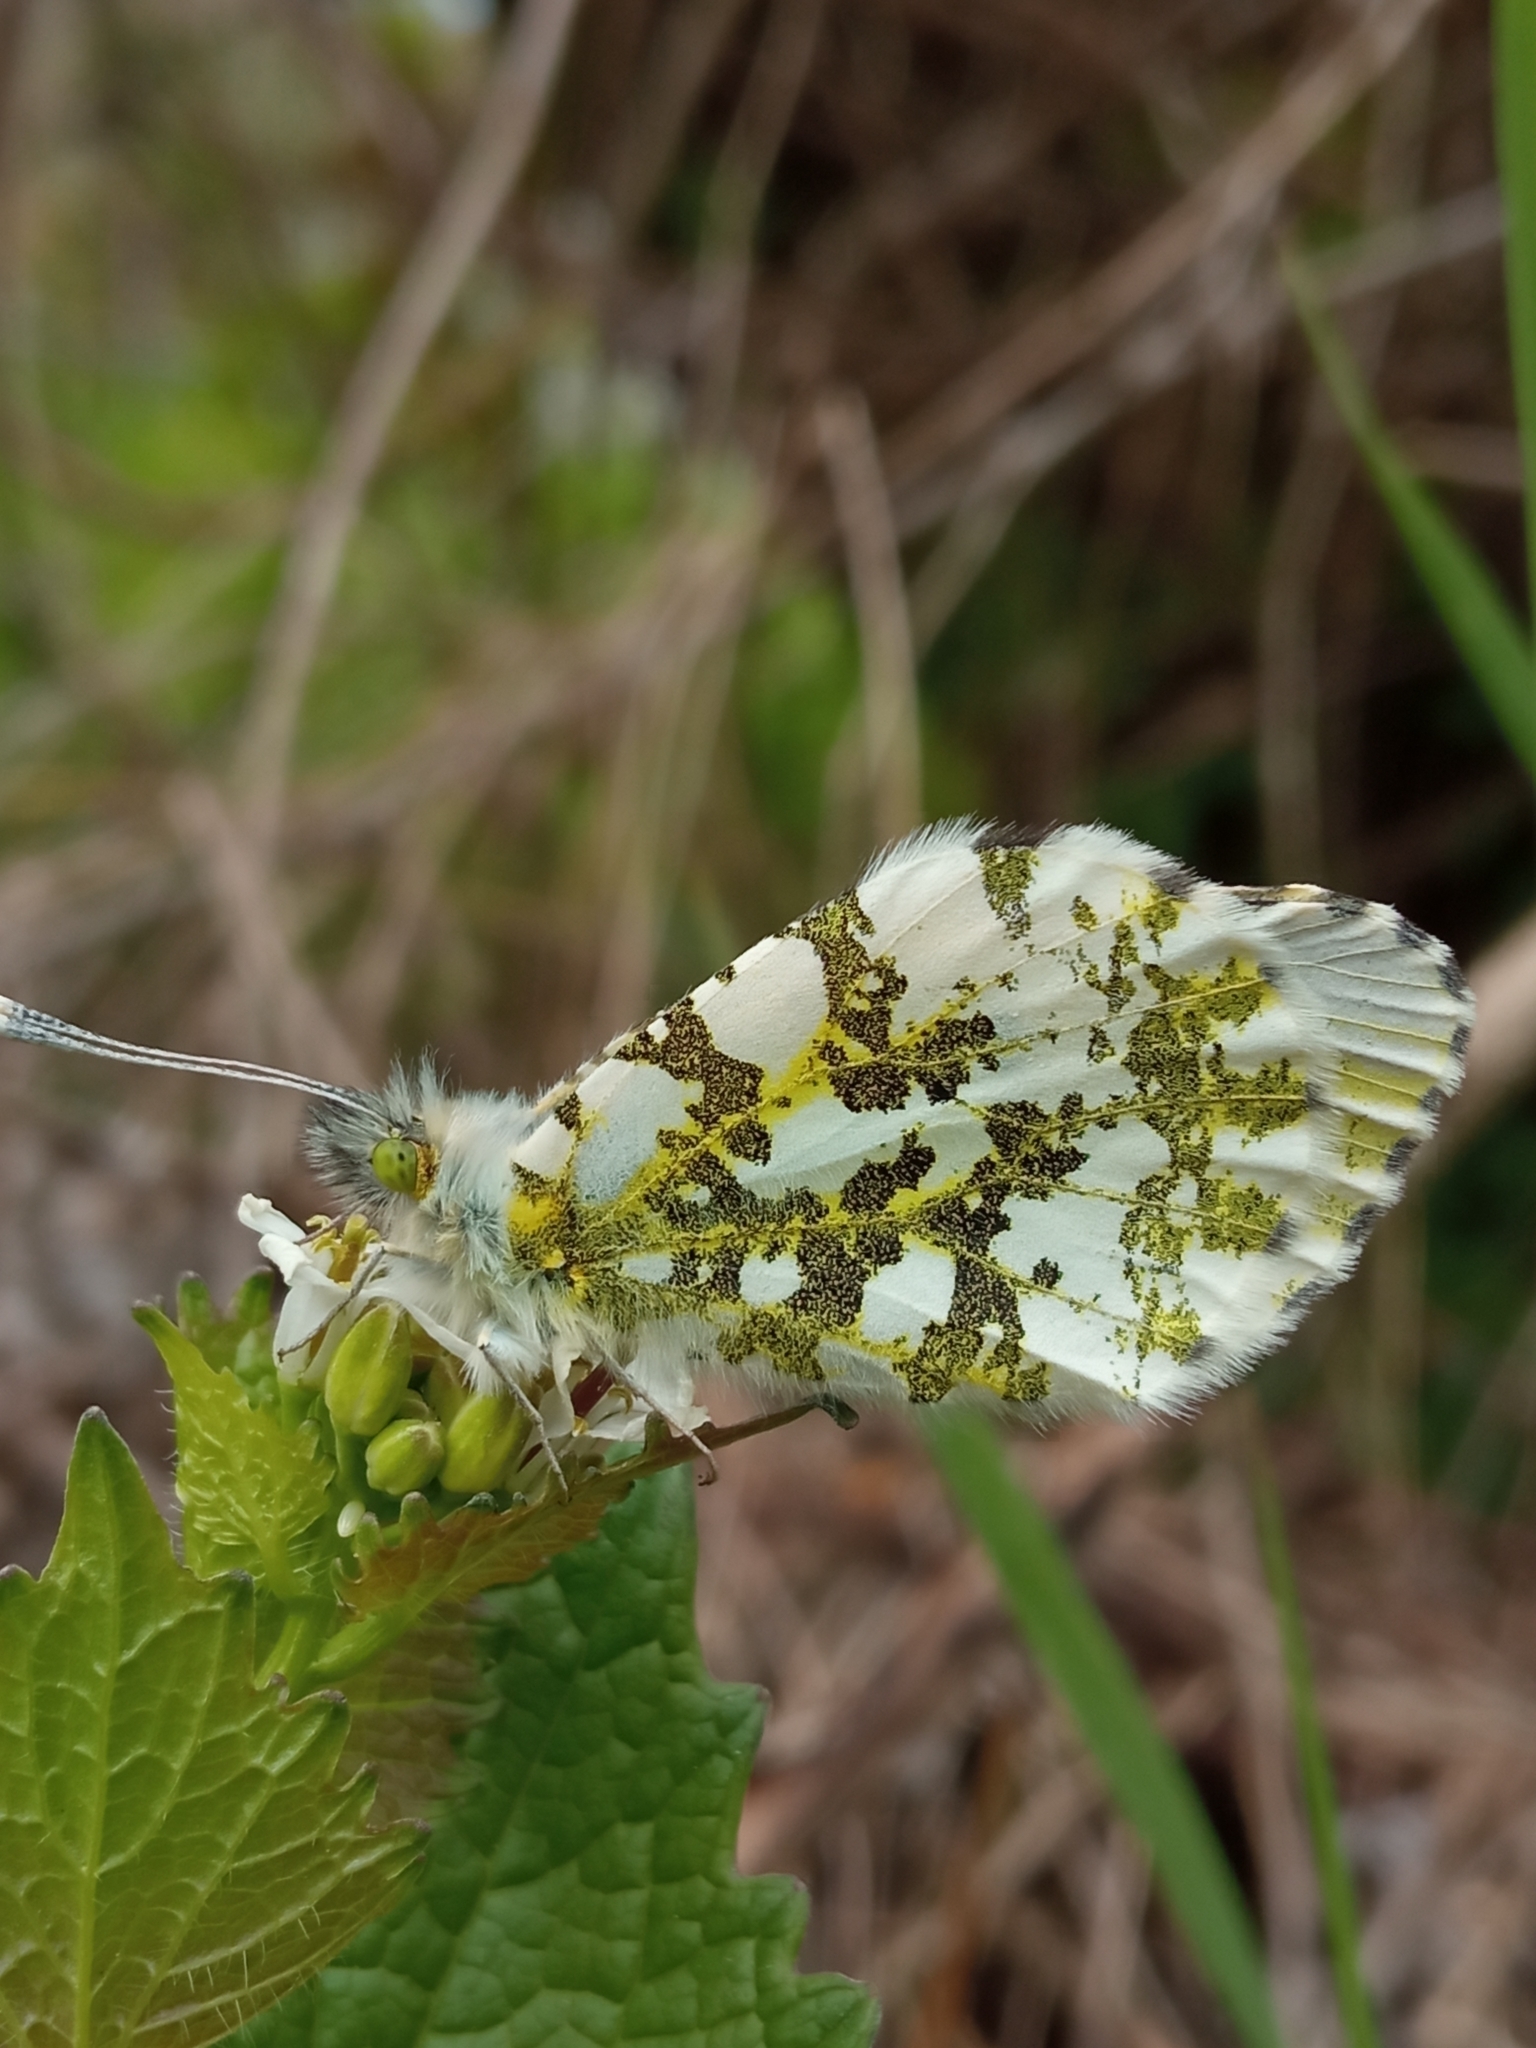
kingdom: Animalia
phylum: Arthropoda
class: Insecta
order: Lepidoptera
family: Pieridae
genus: Anthocharis
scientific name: Anthocharis cardamines
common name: Orange-tip
